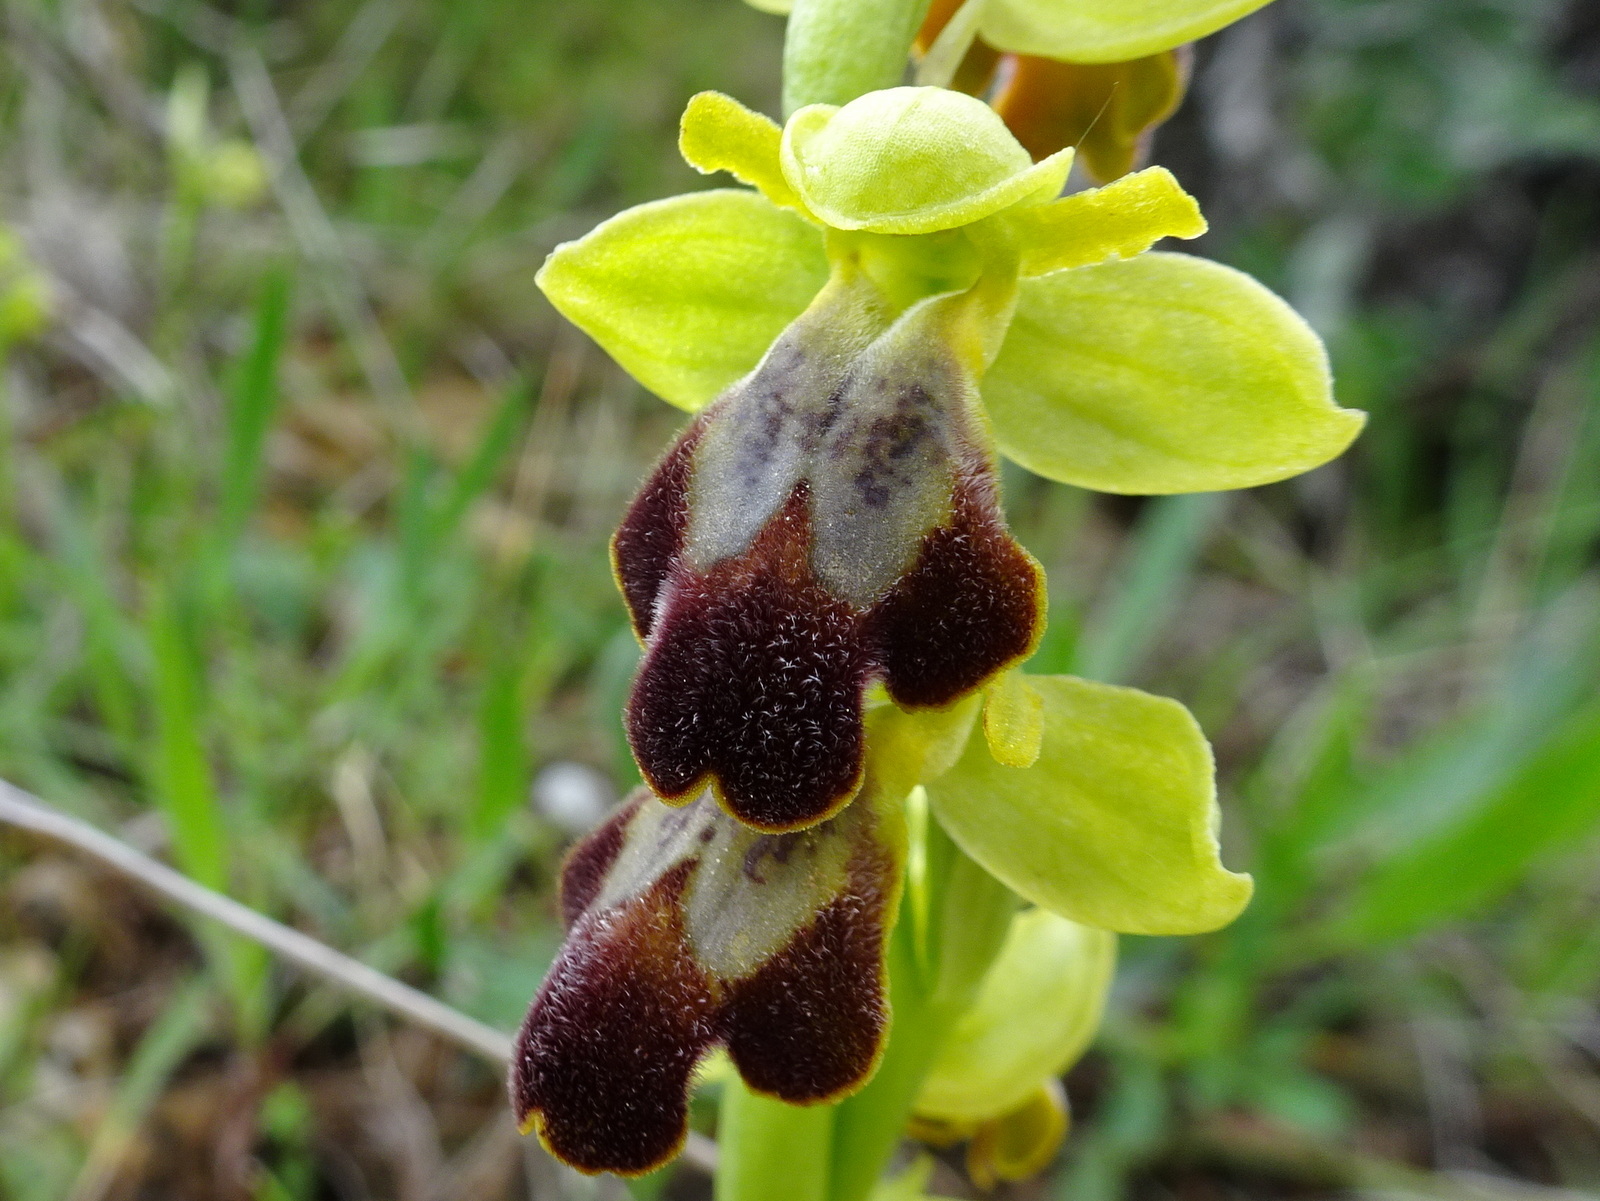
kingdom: Plantae
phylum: Tracheophyta
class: Liliopsida
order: Asparagales
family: Orchidaceae
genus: Ophrys
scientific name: Ophrys fusca
